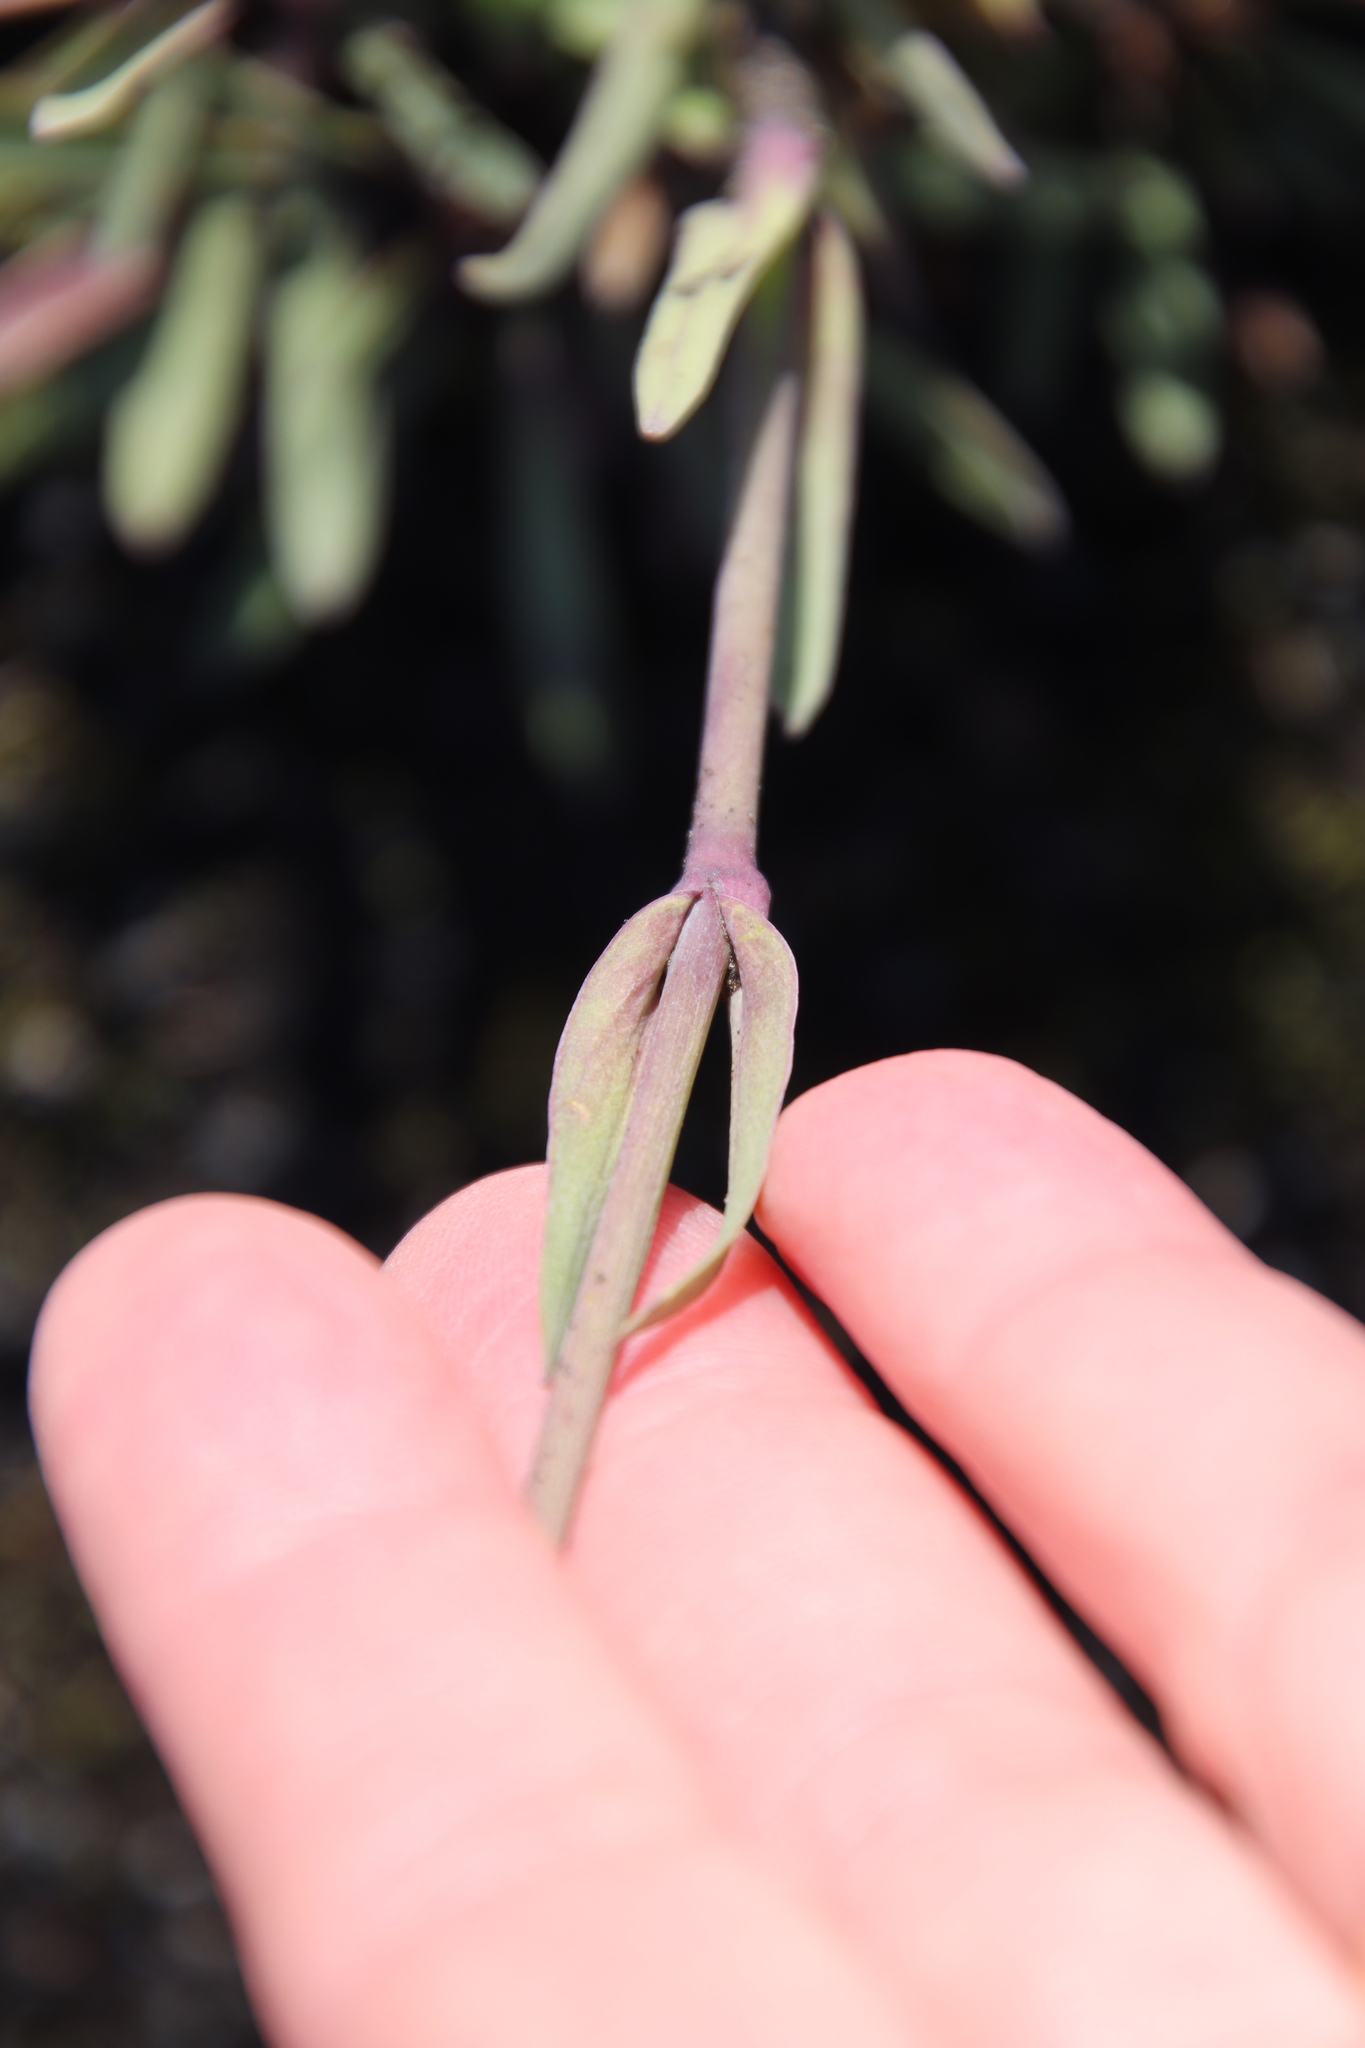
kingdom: Plantae
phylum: Tracheophyta
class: Magnoliopsida
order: Caryophyllales
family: Caryophyllaceae
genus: Viscaria
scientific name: Viscaria alpina
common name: Alpine campion
